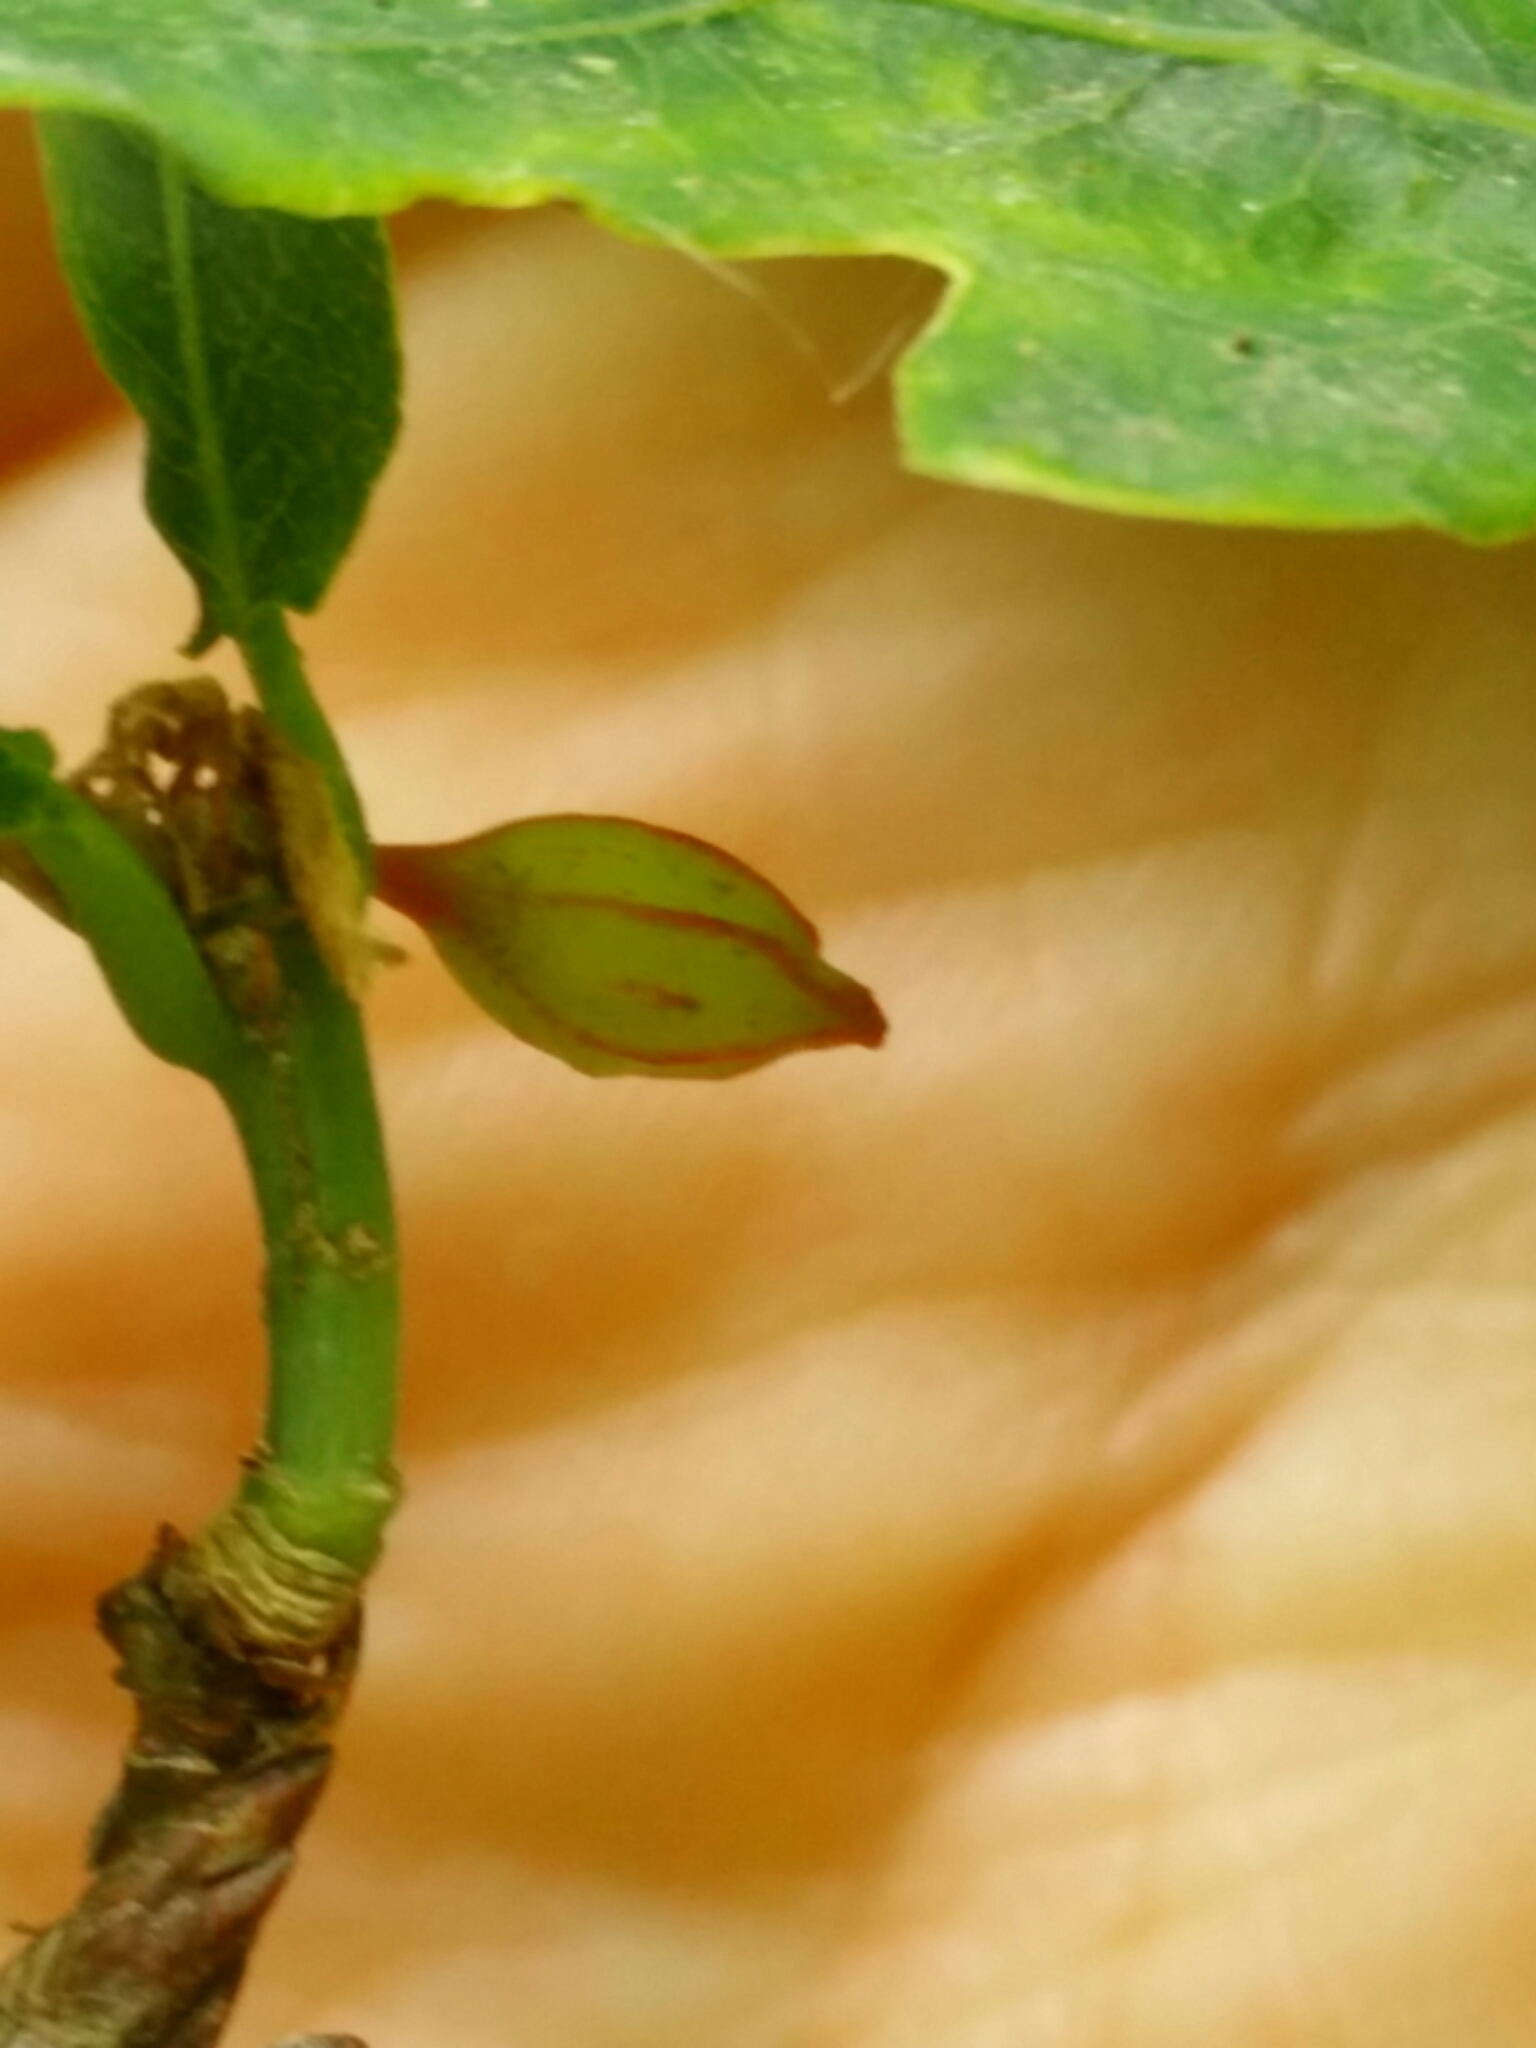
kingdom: Animalia
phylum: Arthropoda
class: Insecta
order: Hymenoptera
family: Cynipidae
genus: Andricus
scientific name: Andricus callidoma
